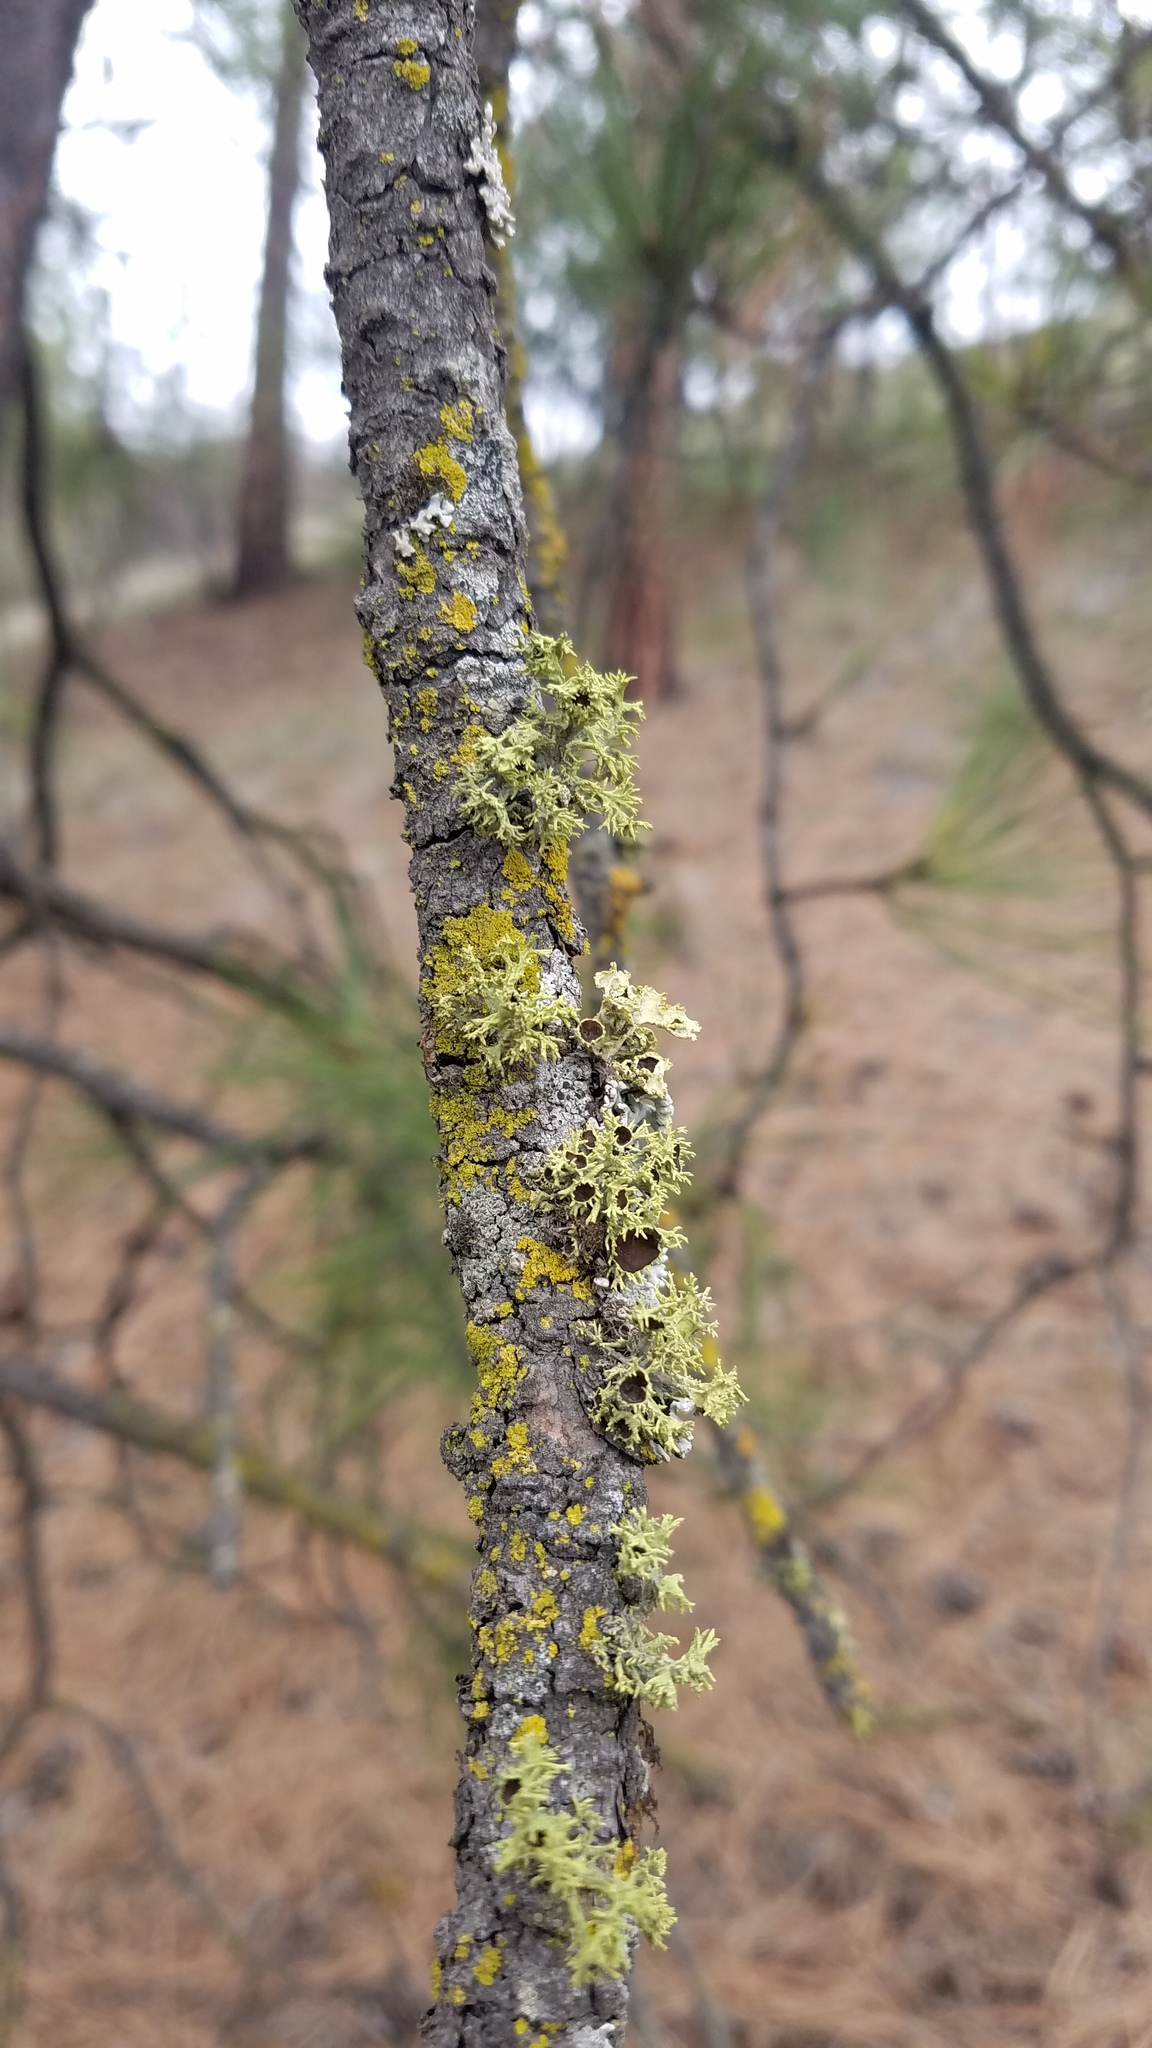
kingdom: Fungi
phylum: Ascomycota
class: Lecanoromycetes
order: Lecanorales
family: Parmeliaceae
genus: Letharia
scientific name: Letharia columbiana
